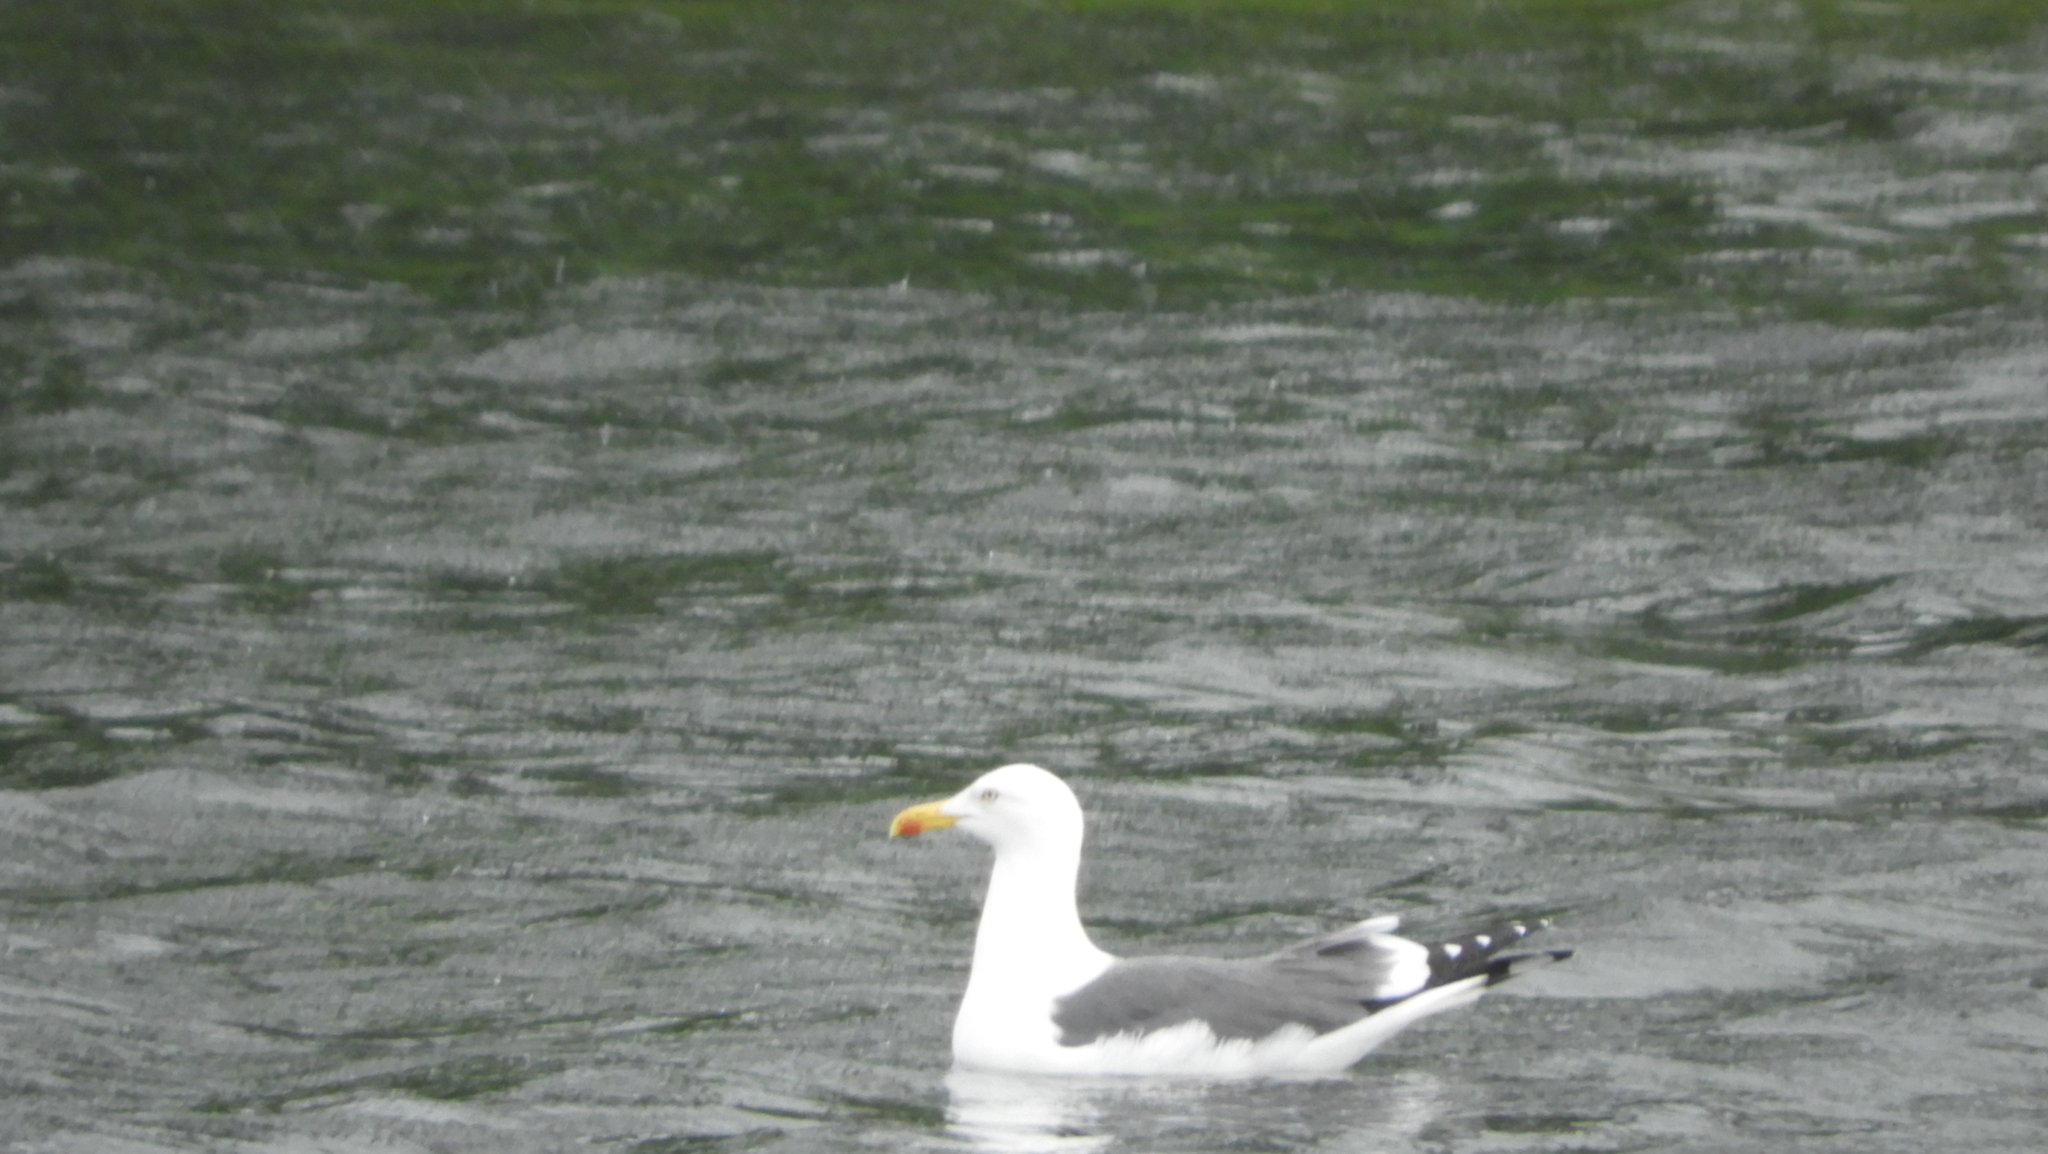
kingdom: Animalia
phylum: Chordata
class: Aves
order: Charadriiformes
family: Laridae
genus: Larus
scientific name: Larus fuscus
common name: Lesser black-backed gull
